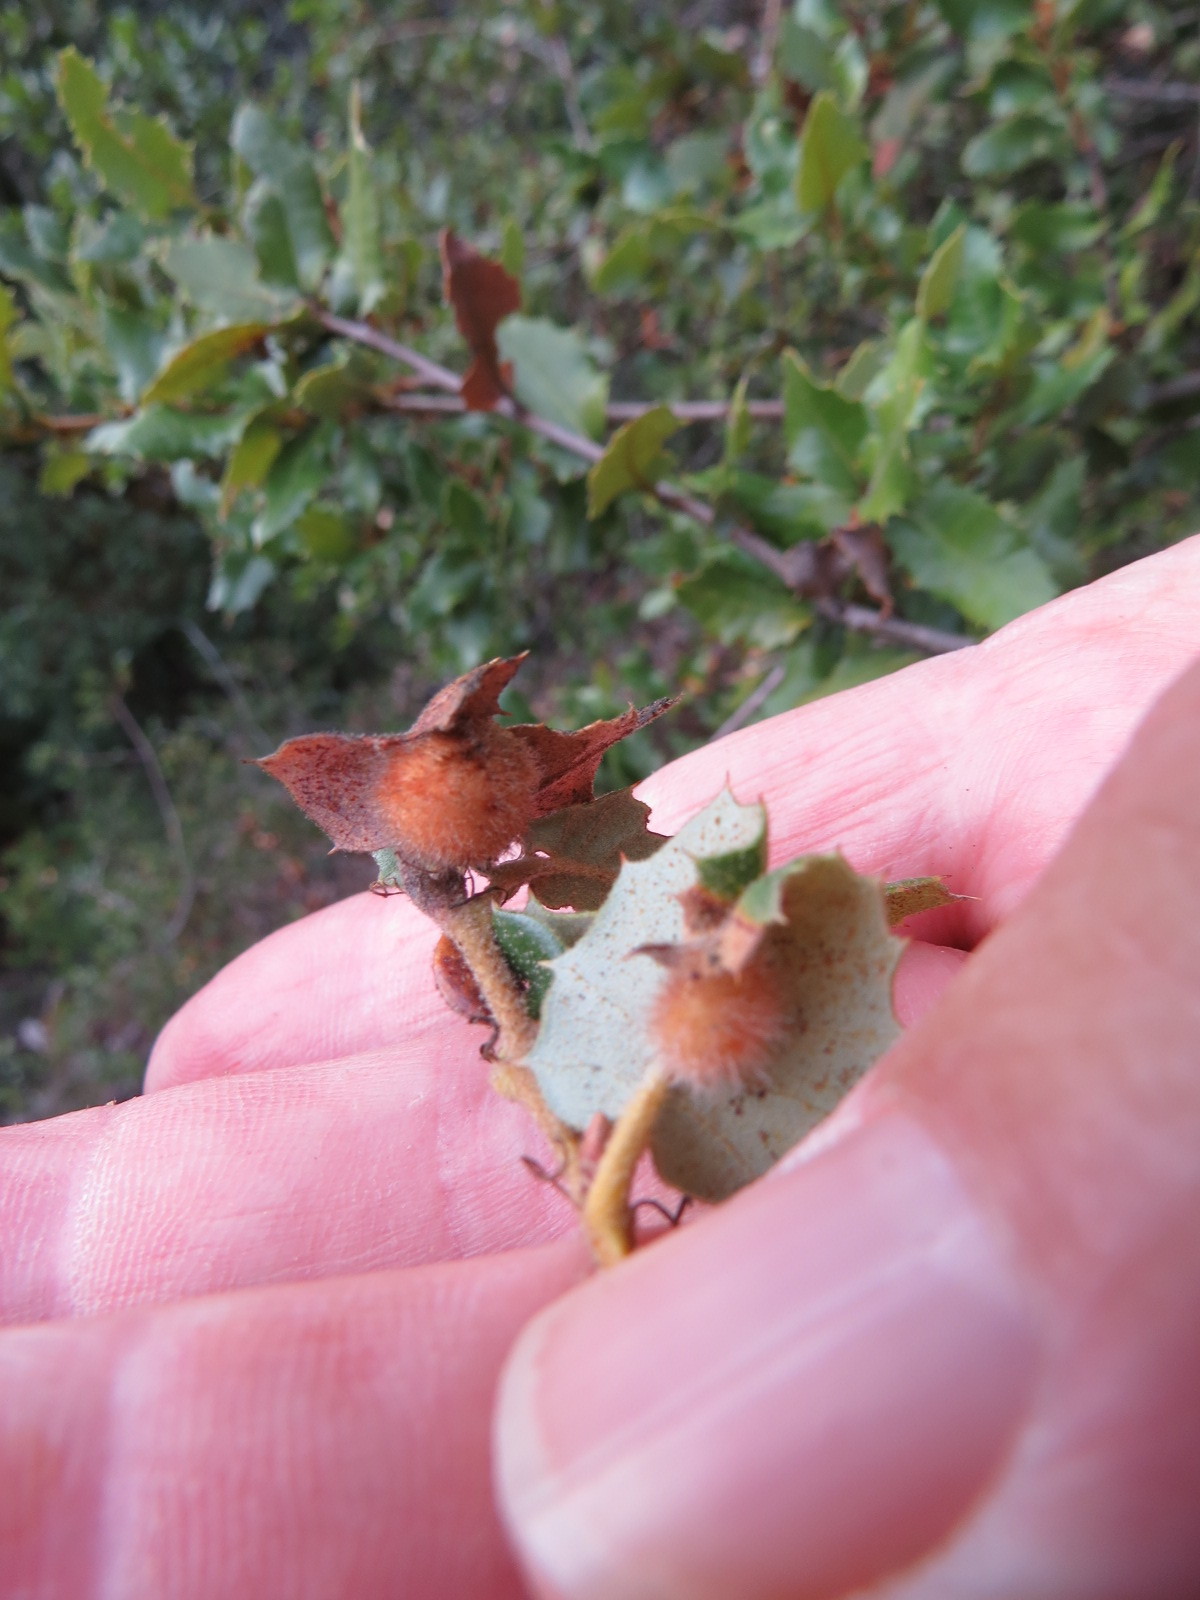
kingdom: Animalia
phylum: Arthropoda
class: Insecta
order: Hymenoptera
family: Cynipidae
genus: Disholandricus
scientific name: Disholandricus
